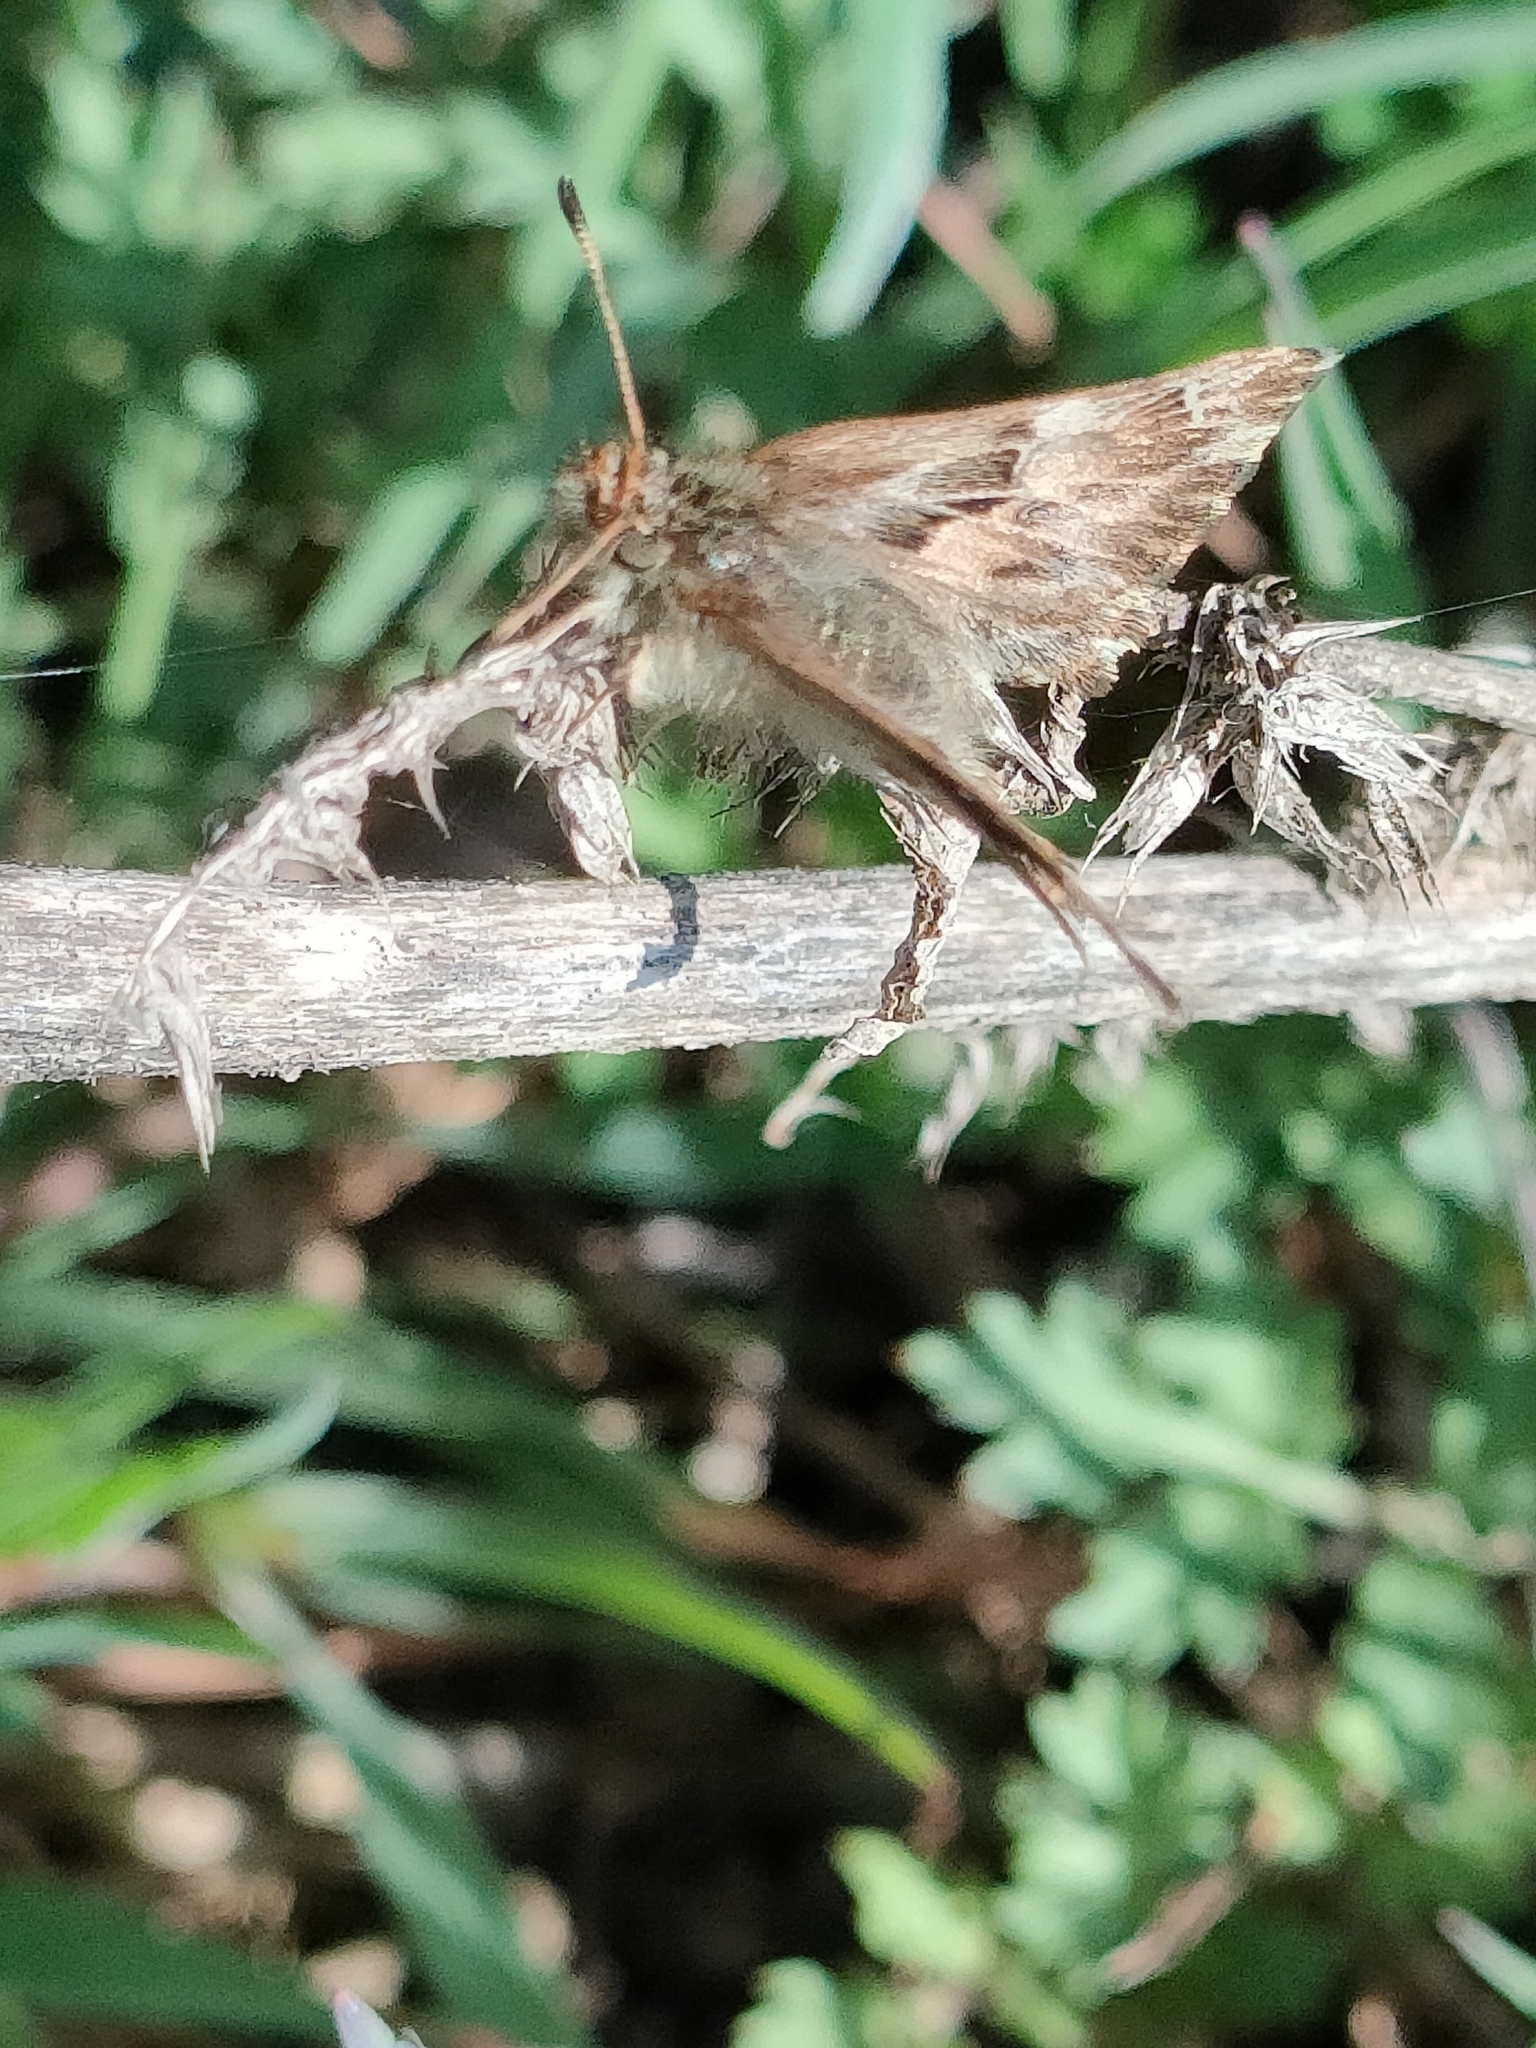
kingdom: Animalia
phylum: Arthropoda
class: Insecta
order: Lepidoptera
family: Hesperiidae
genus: Carcharodus
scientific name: Carcharodus alceae
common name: Mallow skipper
